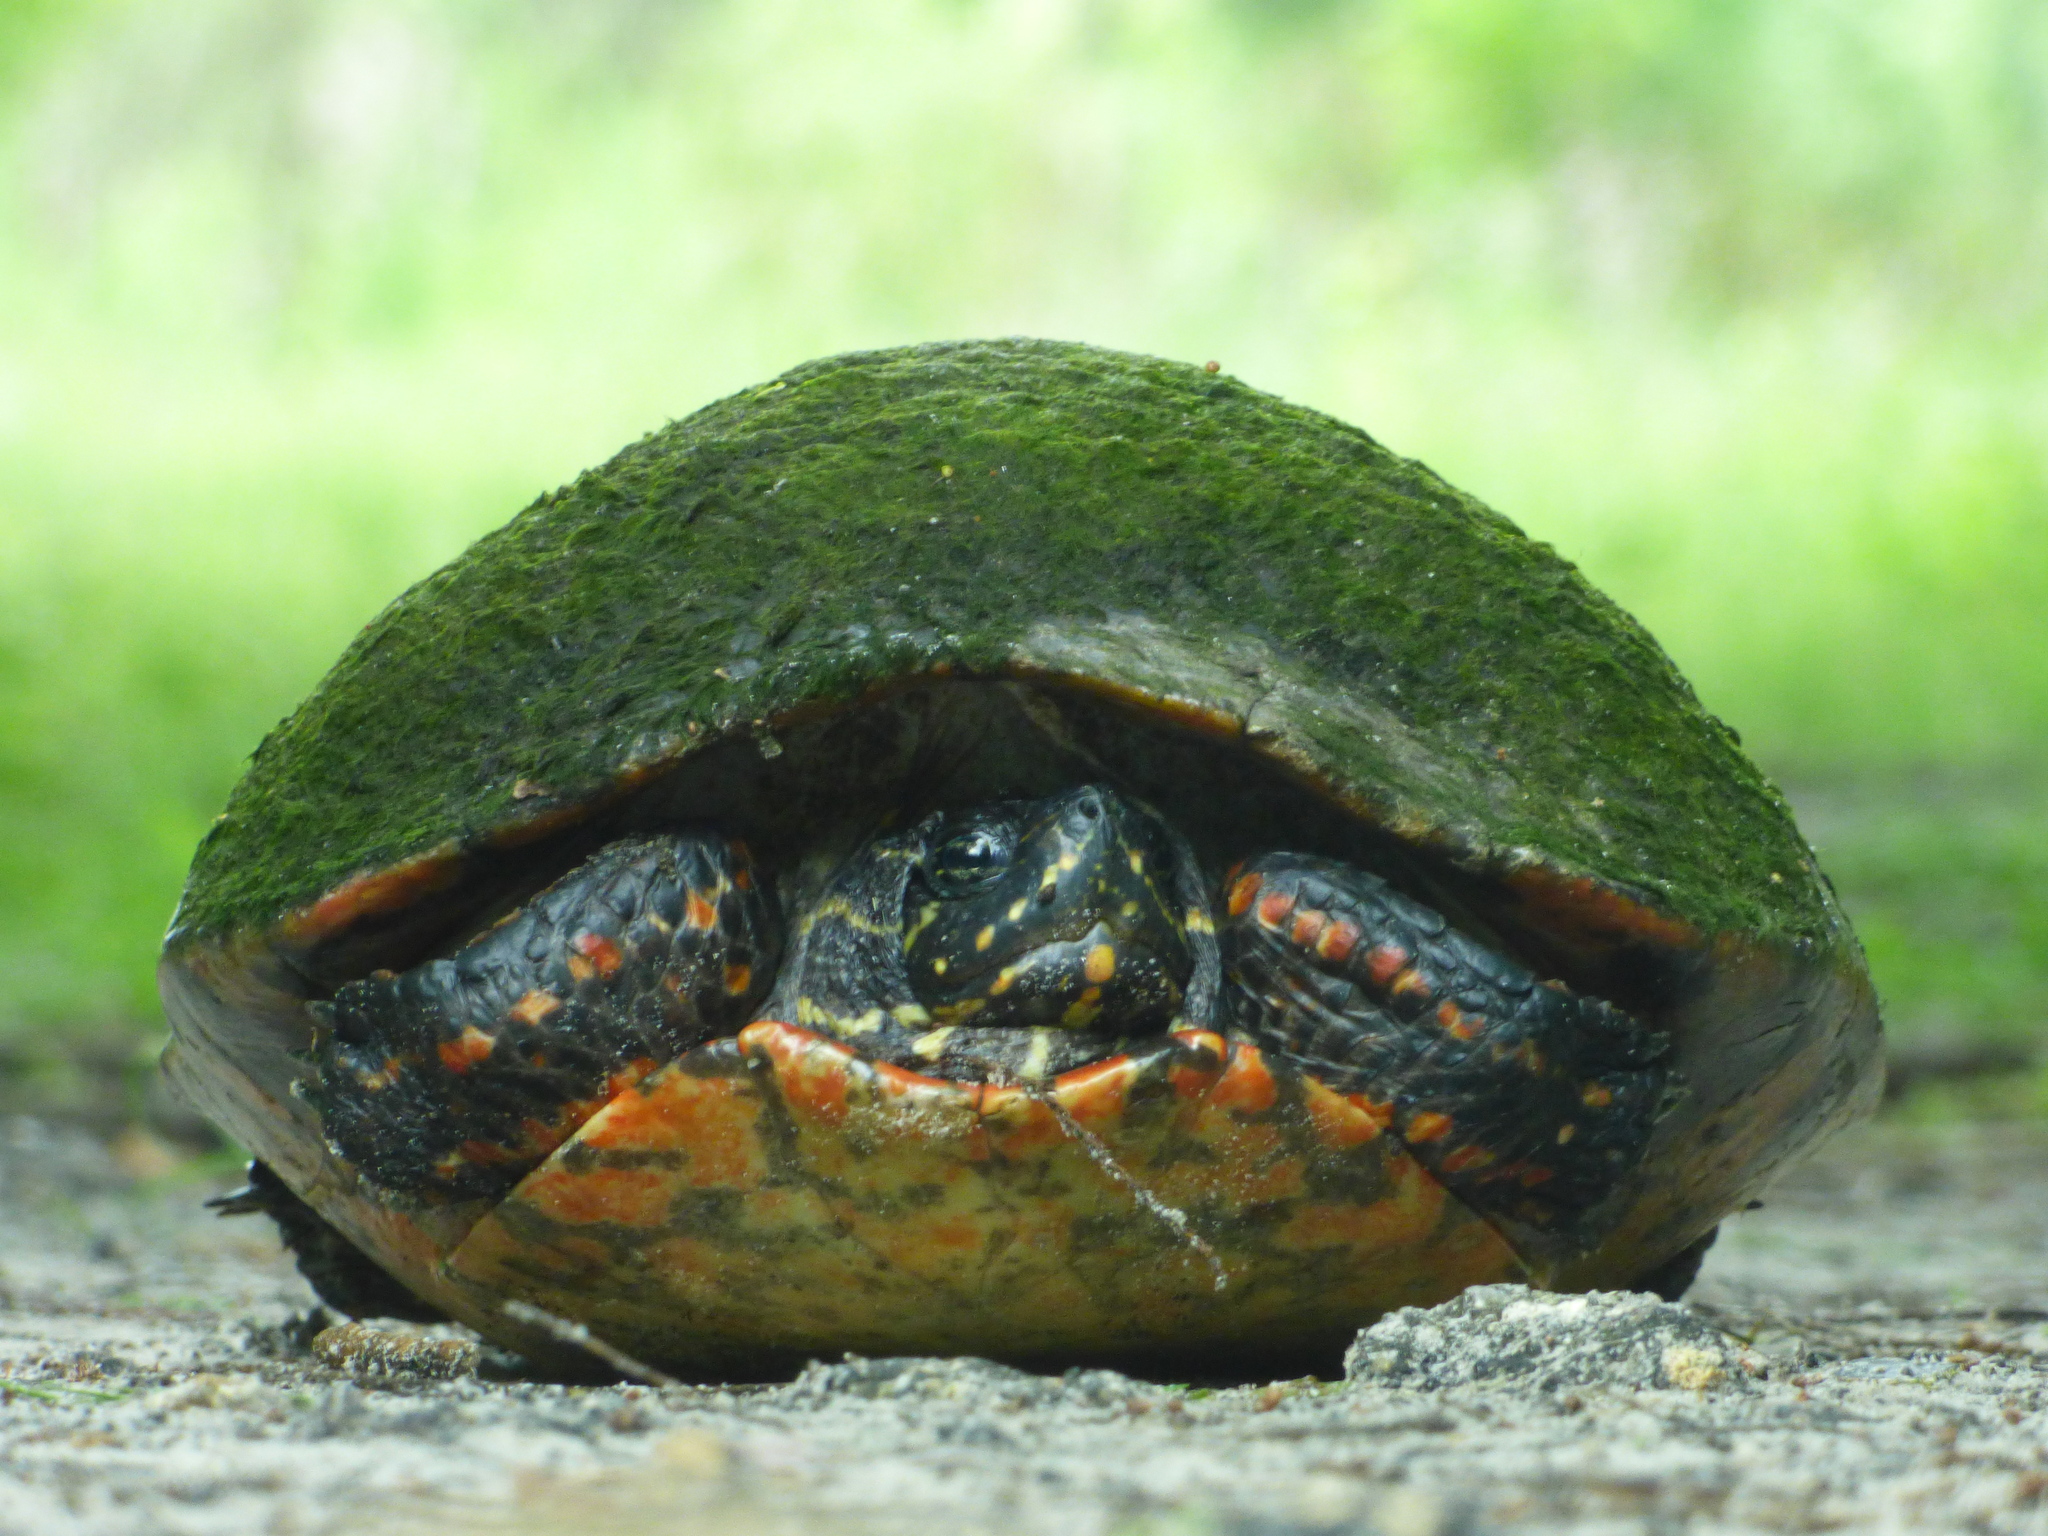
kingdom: Animalia
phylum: Chordata
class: Testudines
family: Emydidae
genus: Pseudemys
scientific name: Pseudemys nelsoni
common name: Florida red-bellied turtle
